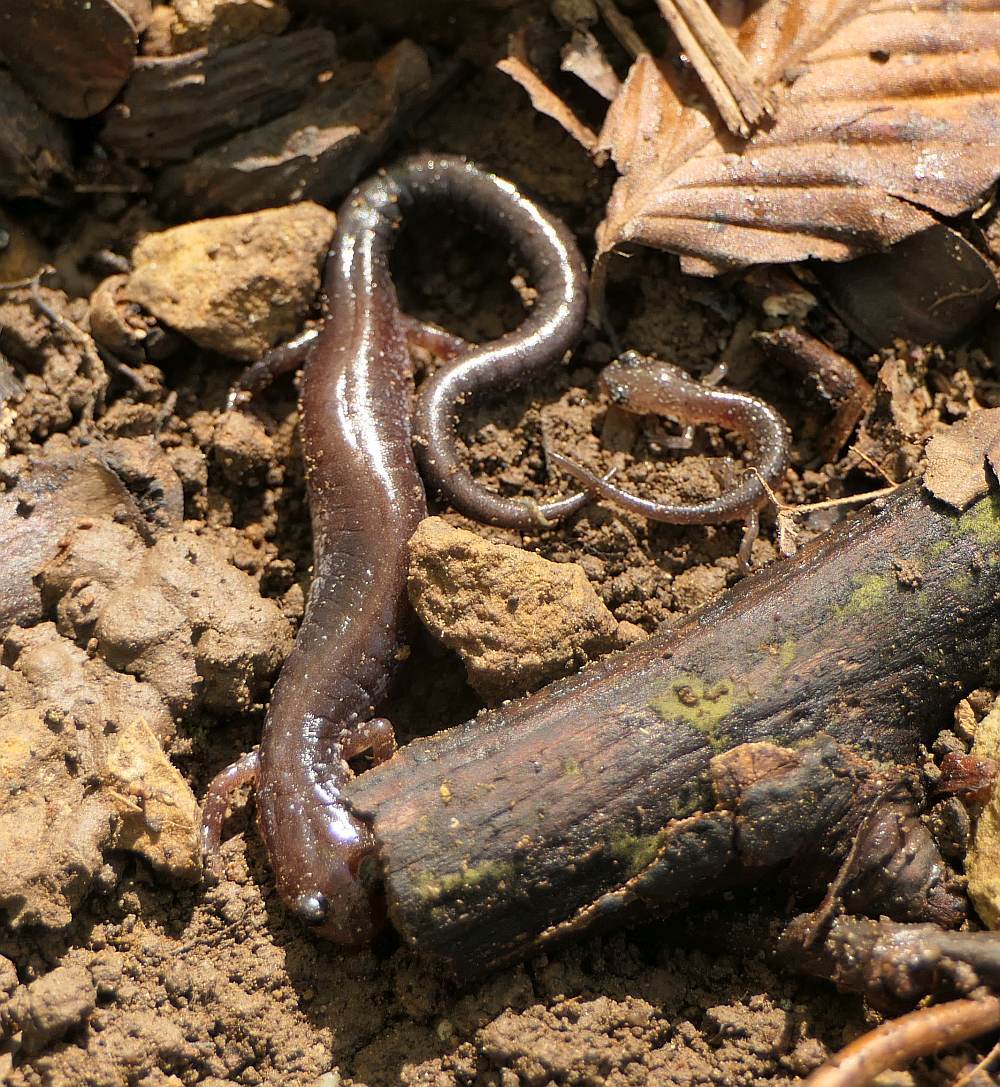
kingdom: Animalia
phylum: Chordata
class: Amphibia
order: Caudata
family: Plethodontidae
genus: Plethodon
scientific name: Plethodon cinereus
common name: Redback salamander
